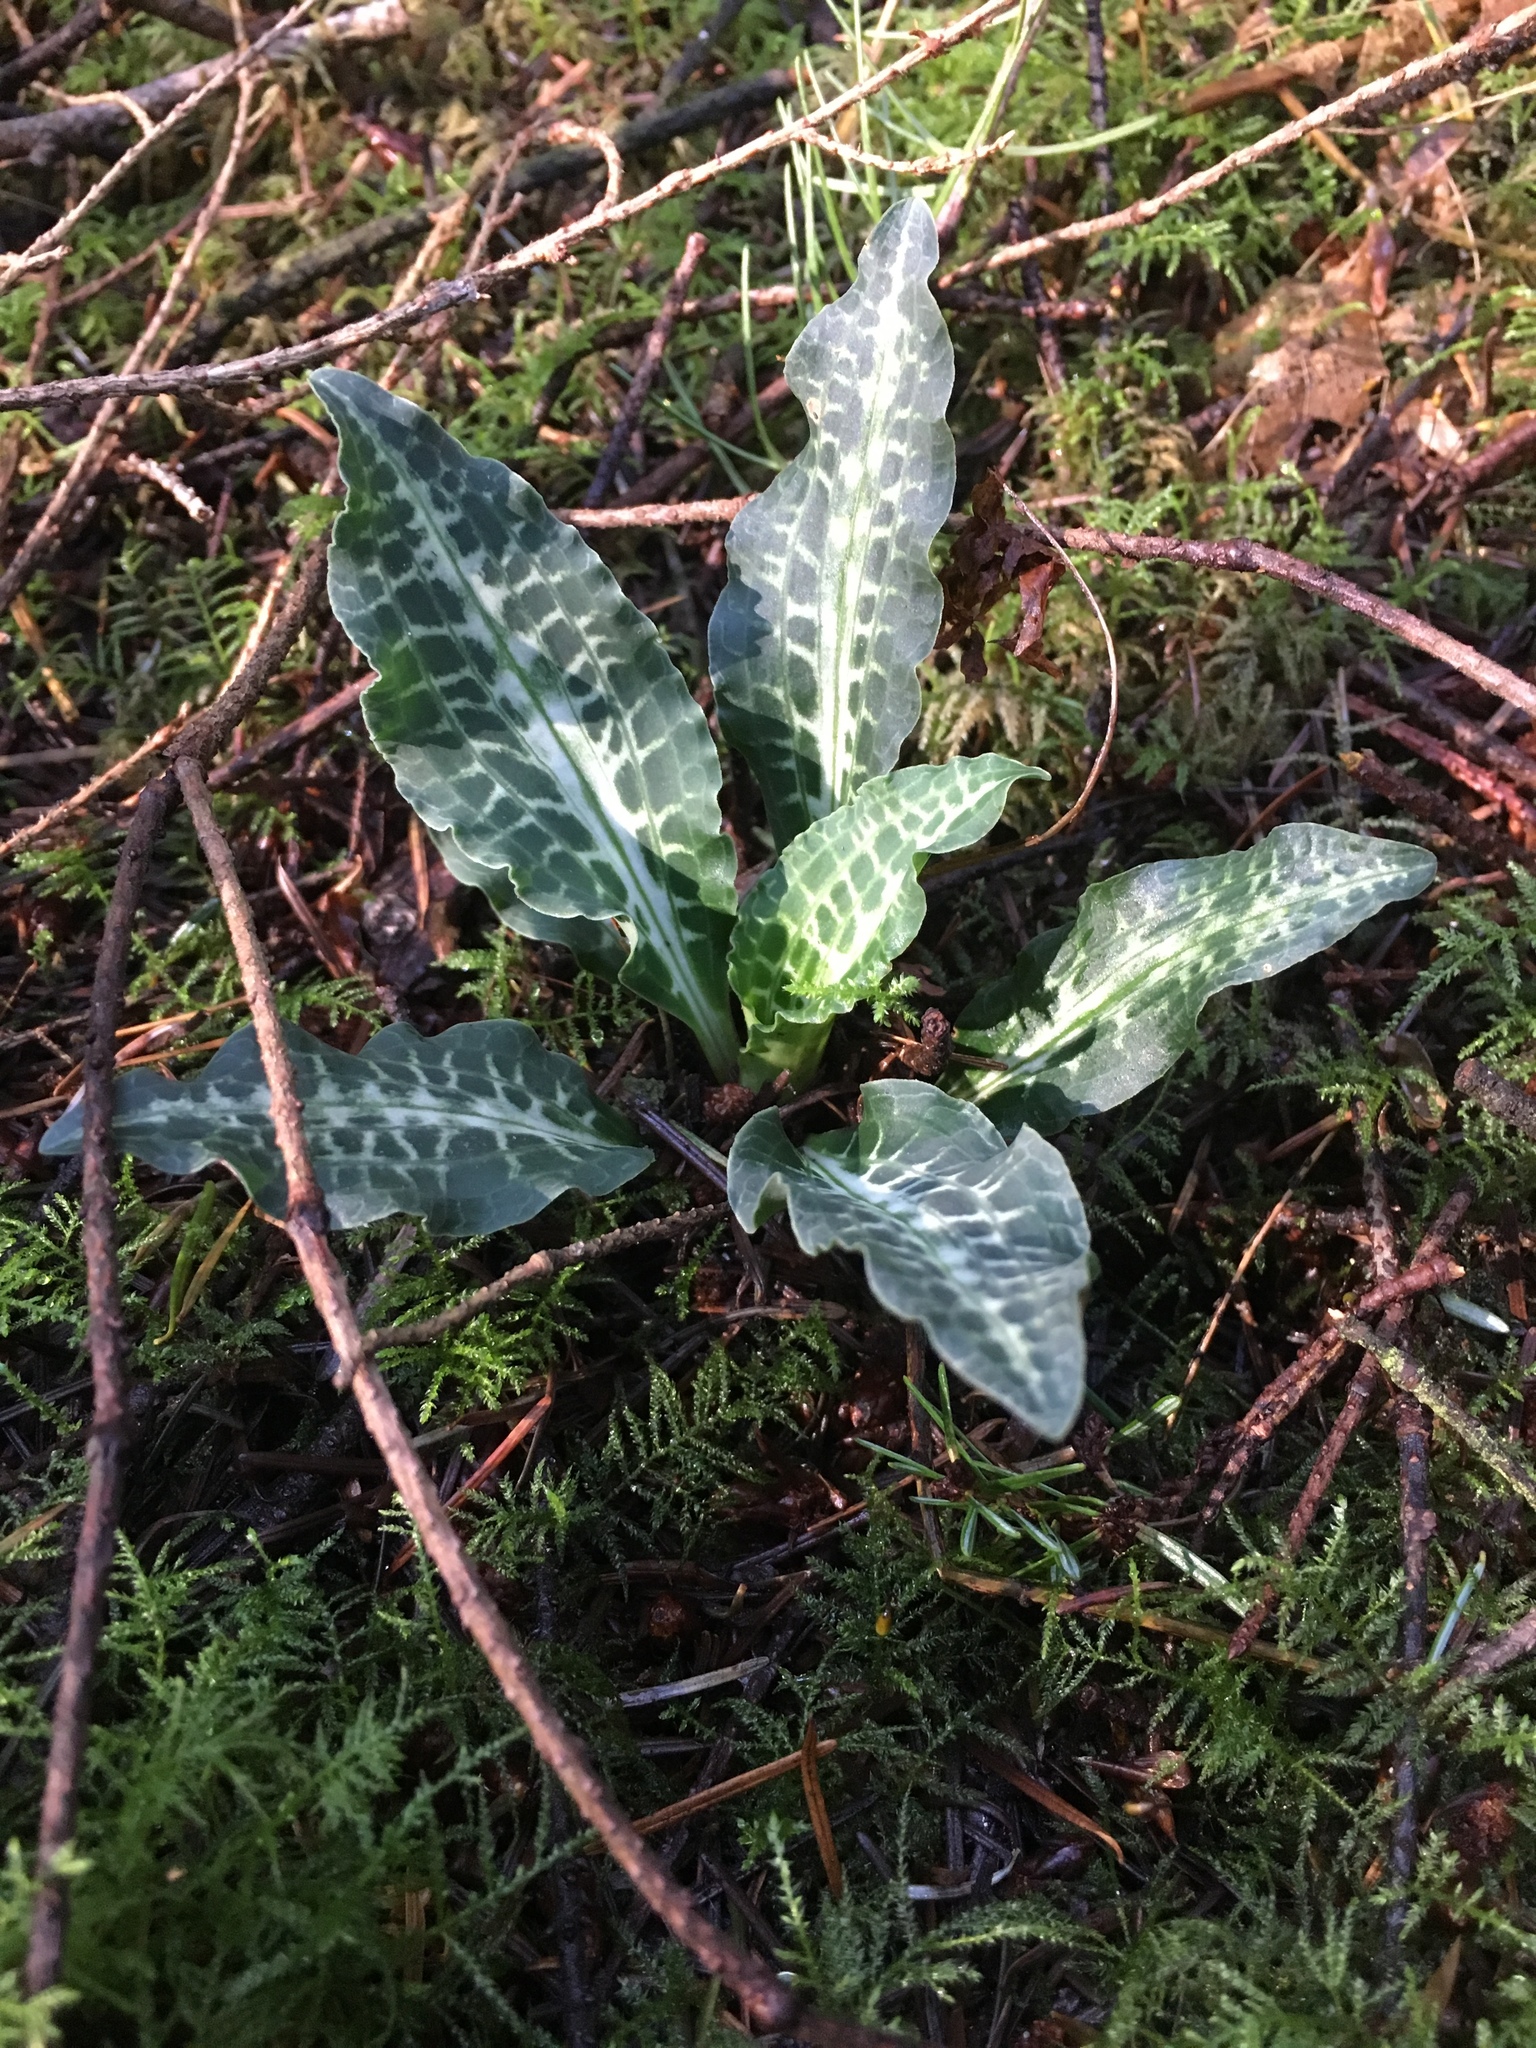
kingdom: Plantae
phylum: Tracheophyta
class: Liliopsida
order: Asparagales
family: Orchidaceae
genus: Goodyera
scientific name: Goodyera oblongifolia
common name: Giant rattlesnake-plantain
